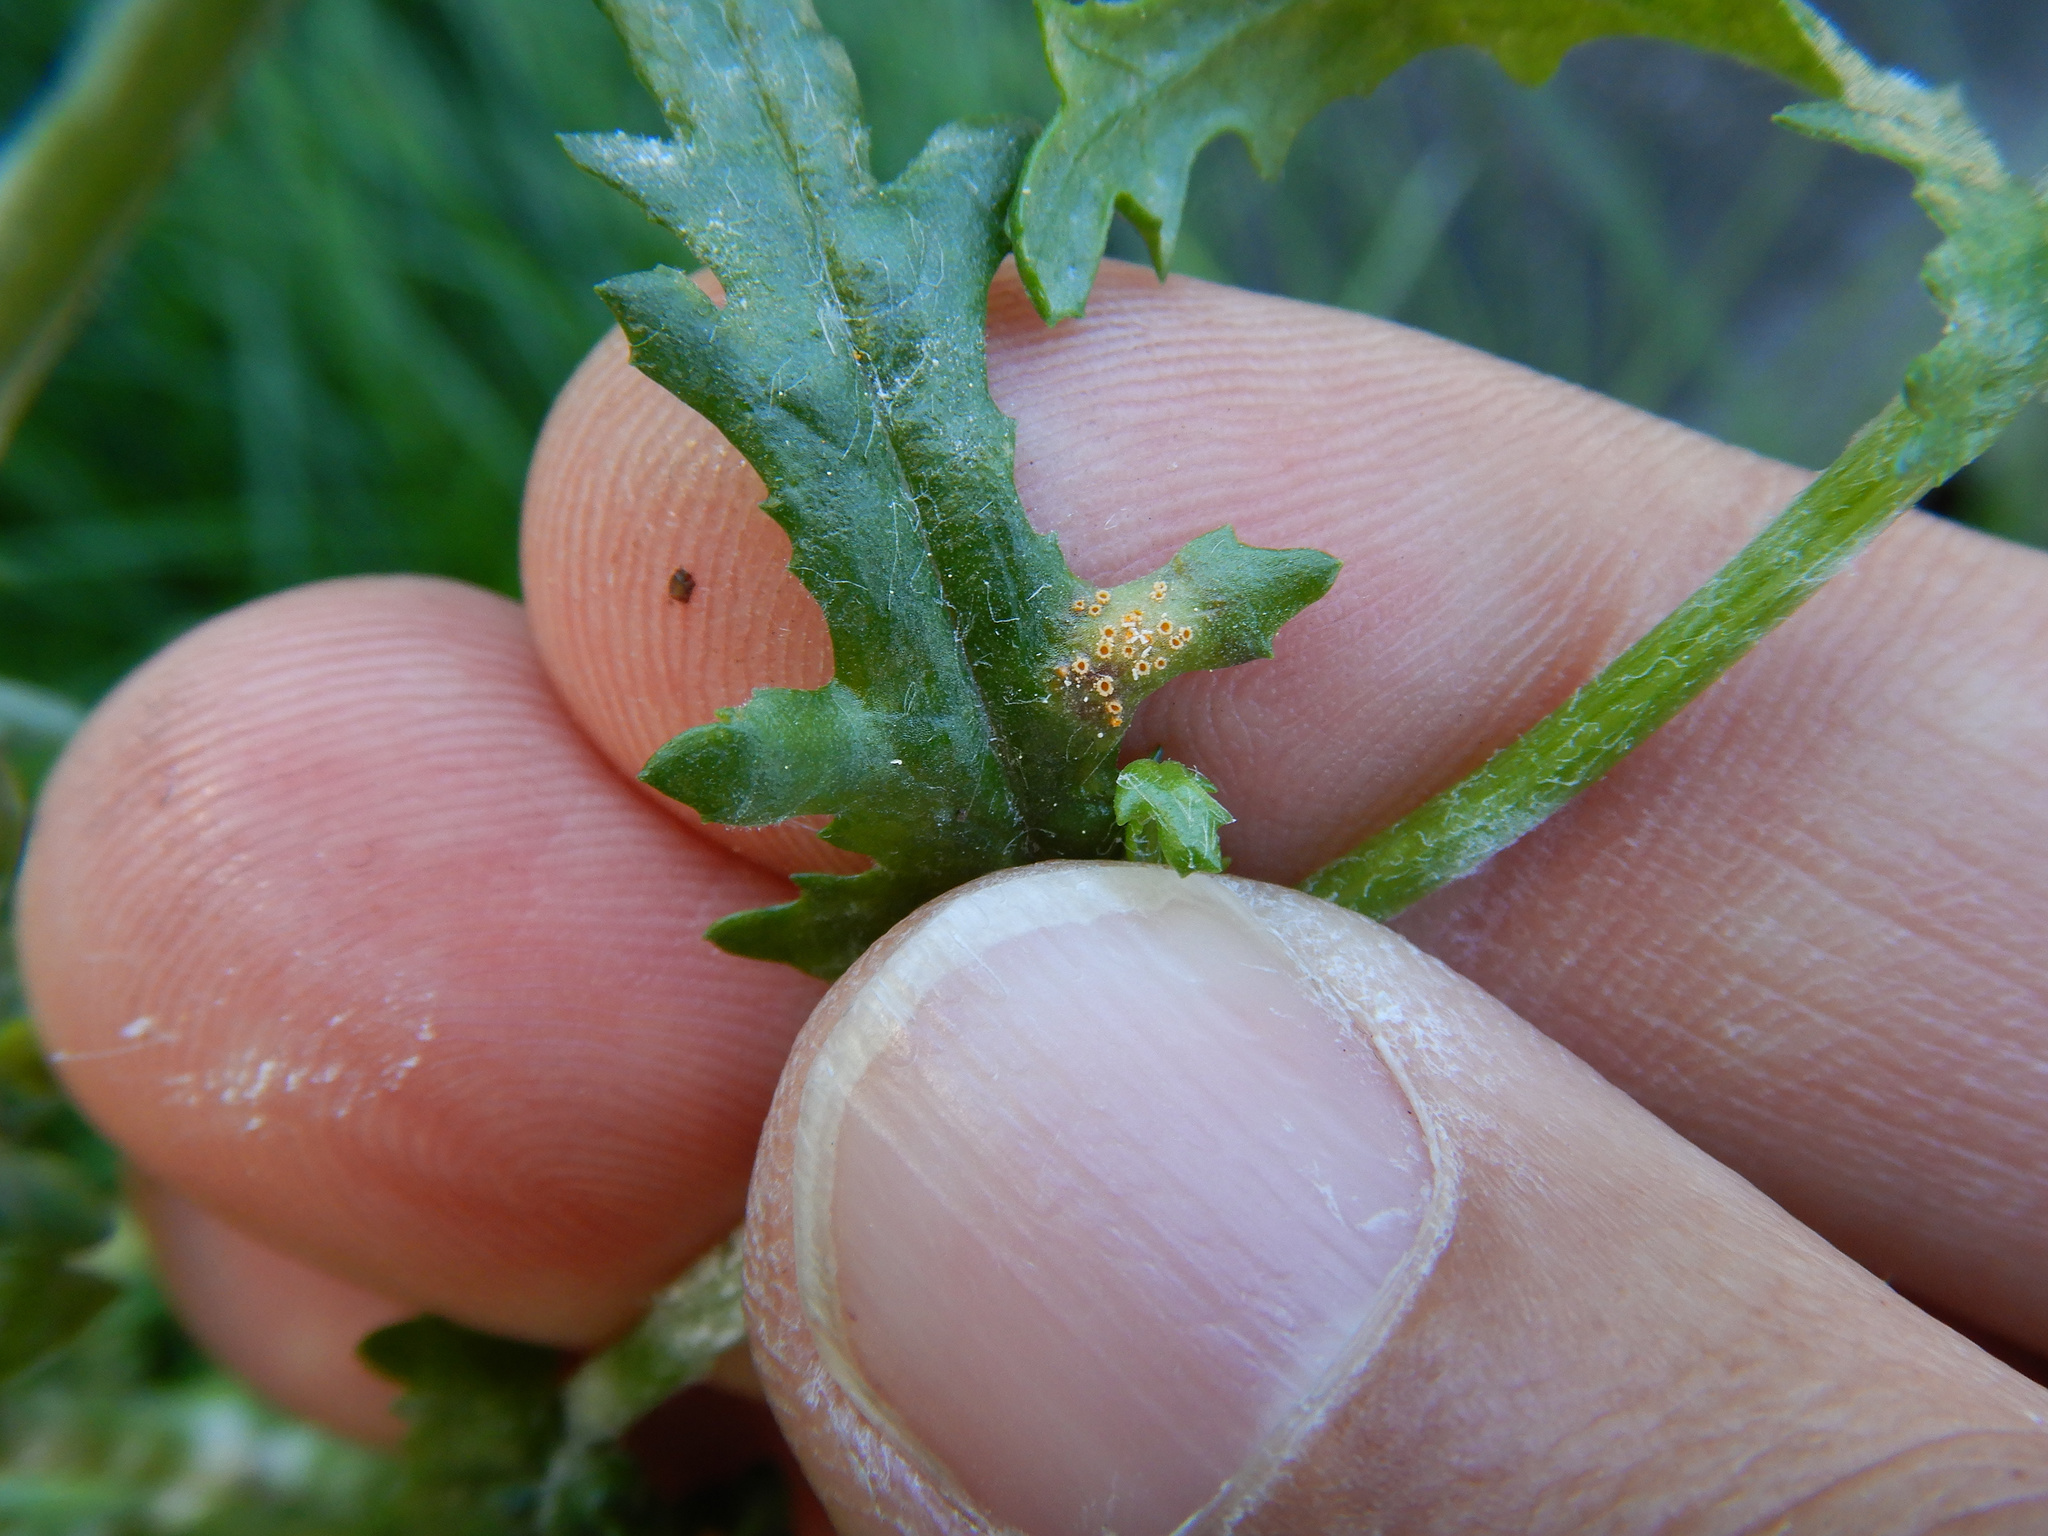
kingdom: Fungi
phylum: Basidiomycota
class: Pucciniomycetes
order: Pucciniales
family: Pucciniaceae
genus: Puccinia
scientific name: Puccinia lagenophorae
